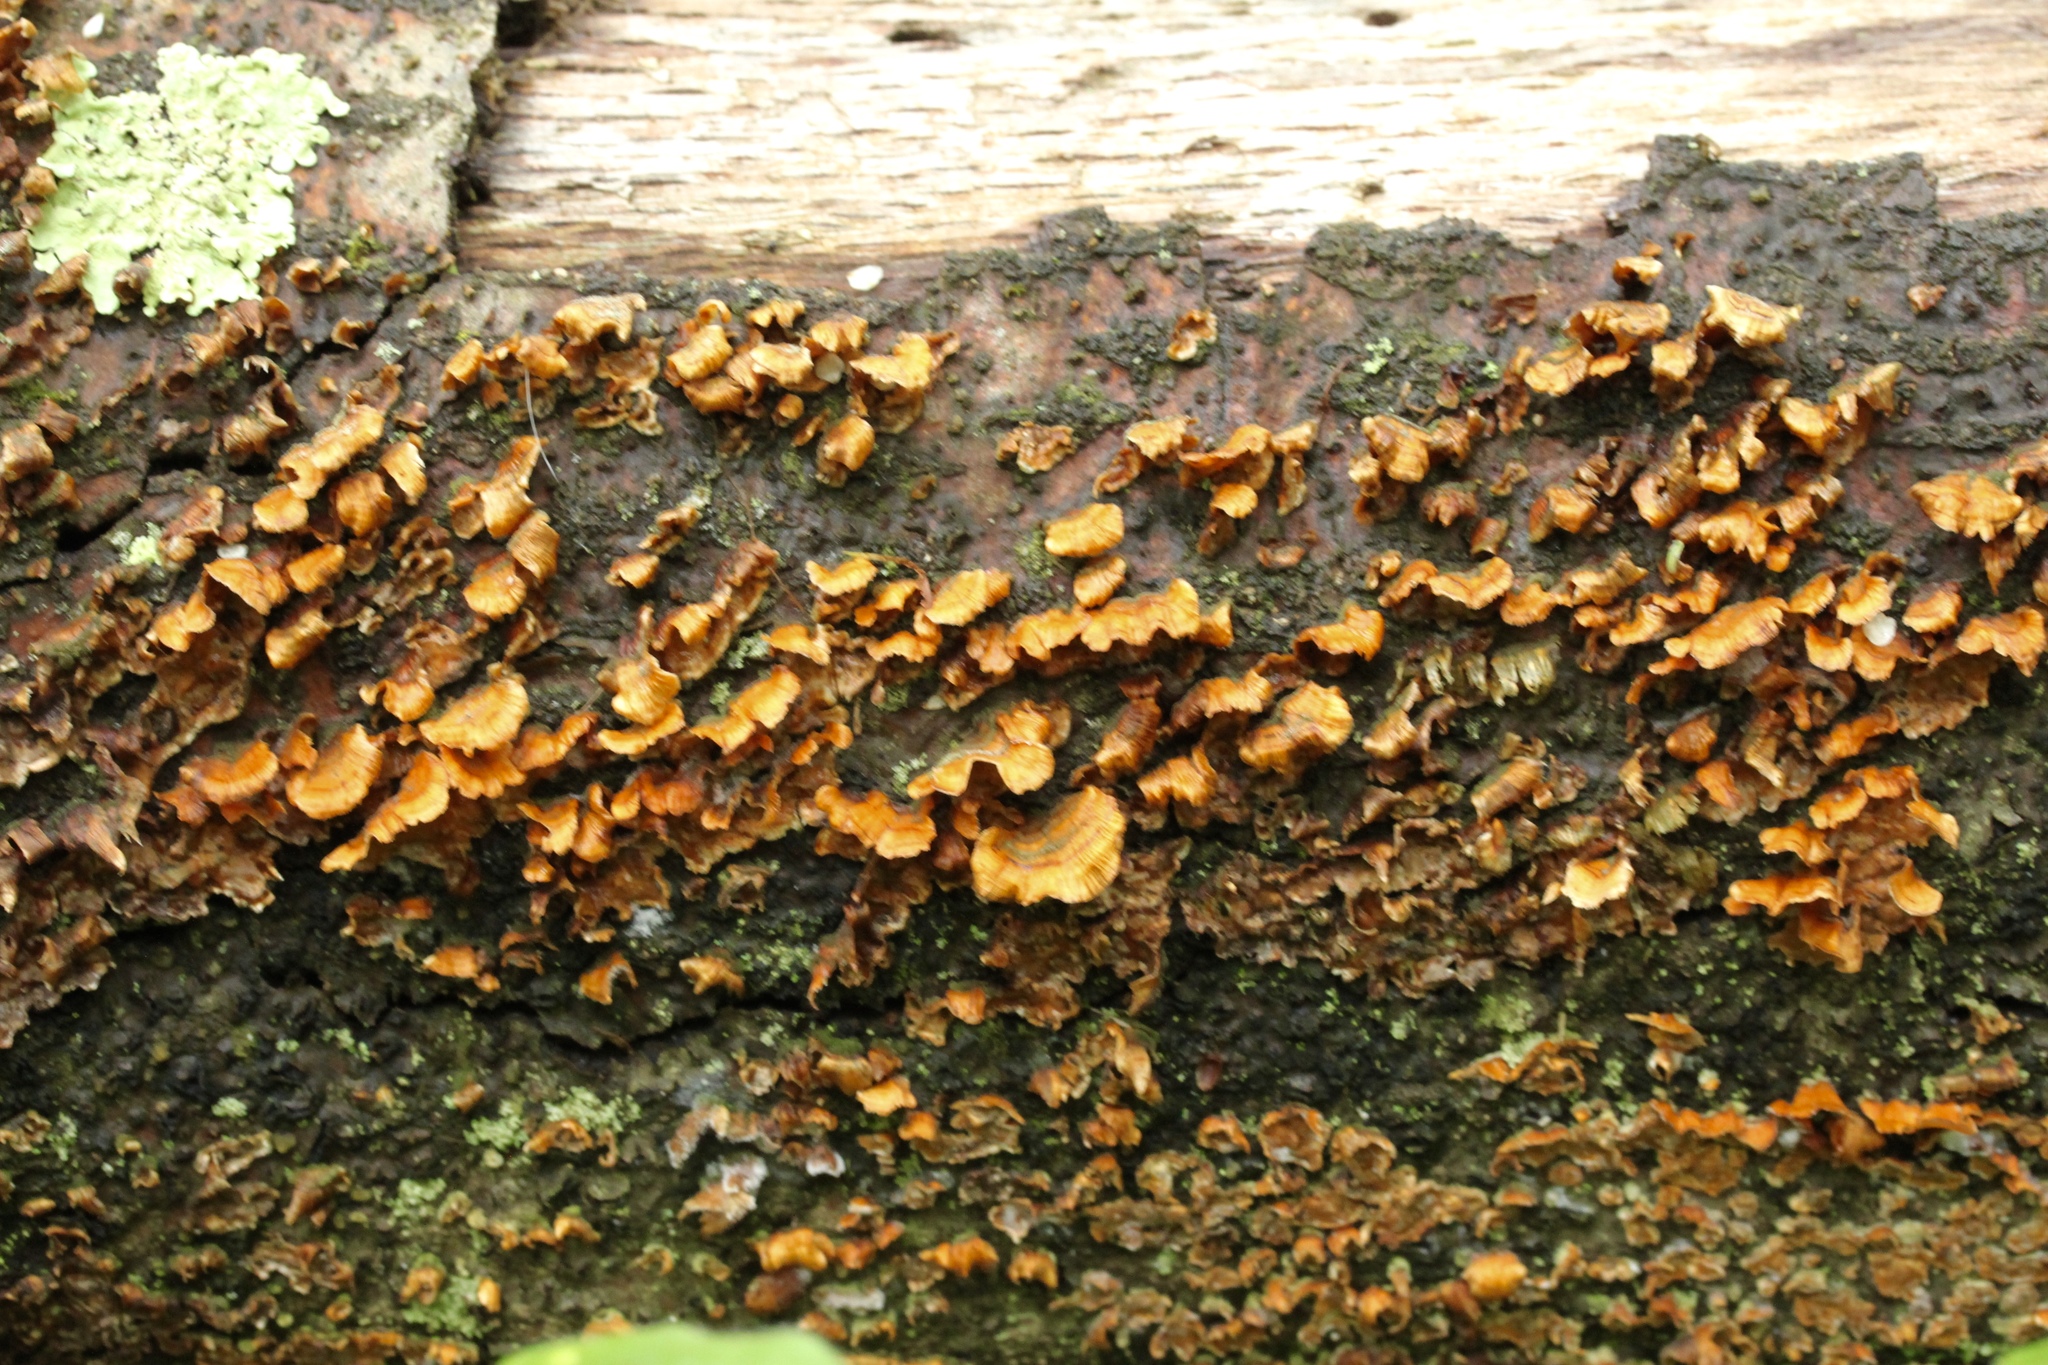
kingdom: Fungi
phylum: Basidiomycota
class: Agaricomycetes
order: Russulales
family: Stereaceae
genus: Stereum
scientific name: Stereum complicatum
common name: Crowded parchment
